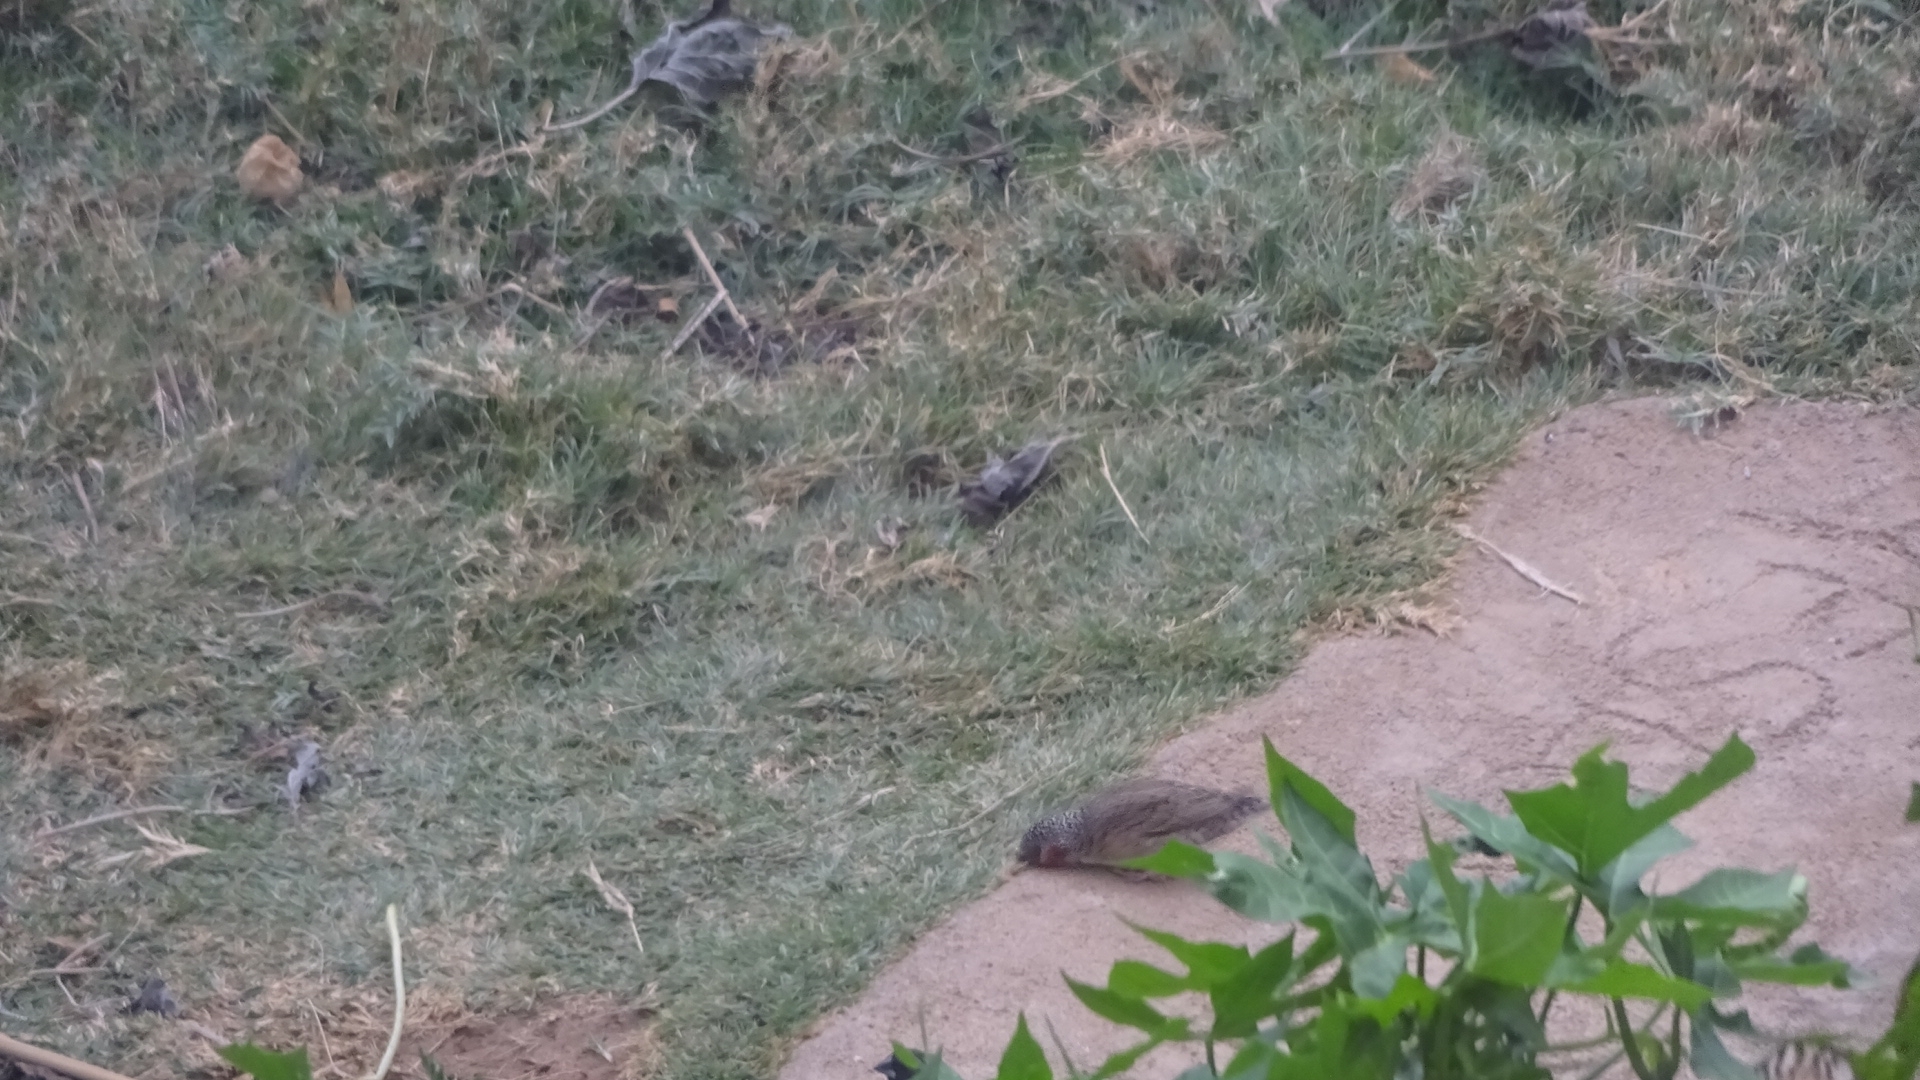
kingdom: Animalia
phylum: Chordata
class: Aves
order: Passeriformes
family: Estrildidae
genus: Amadina
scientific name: Amadina fasciata
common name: Cut-throat finch
